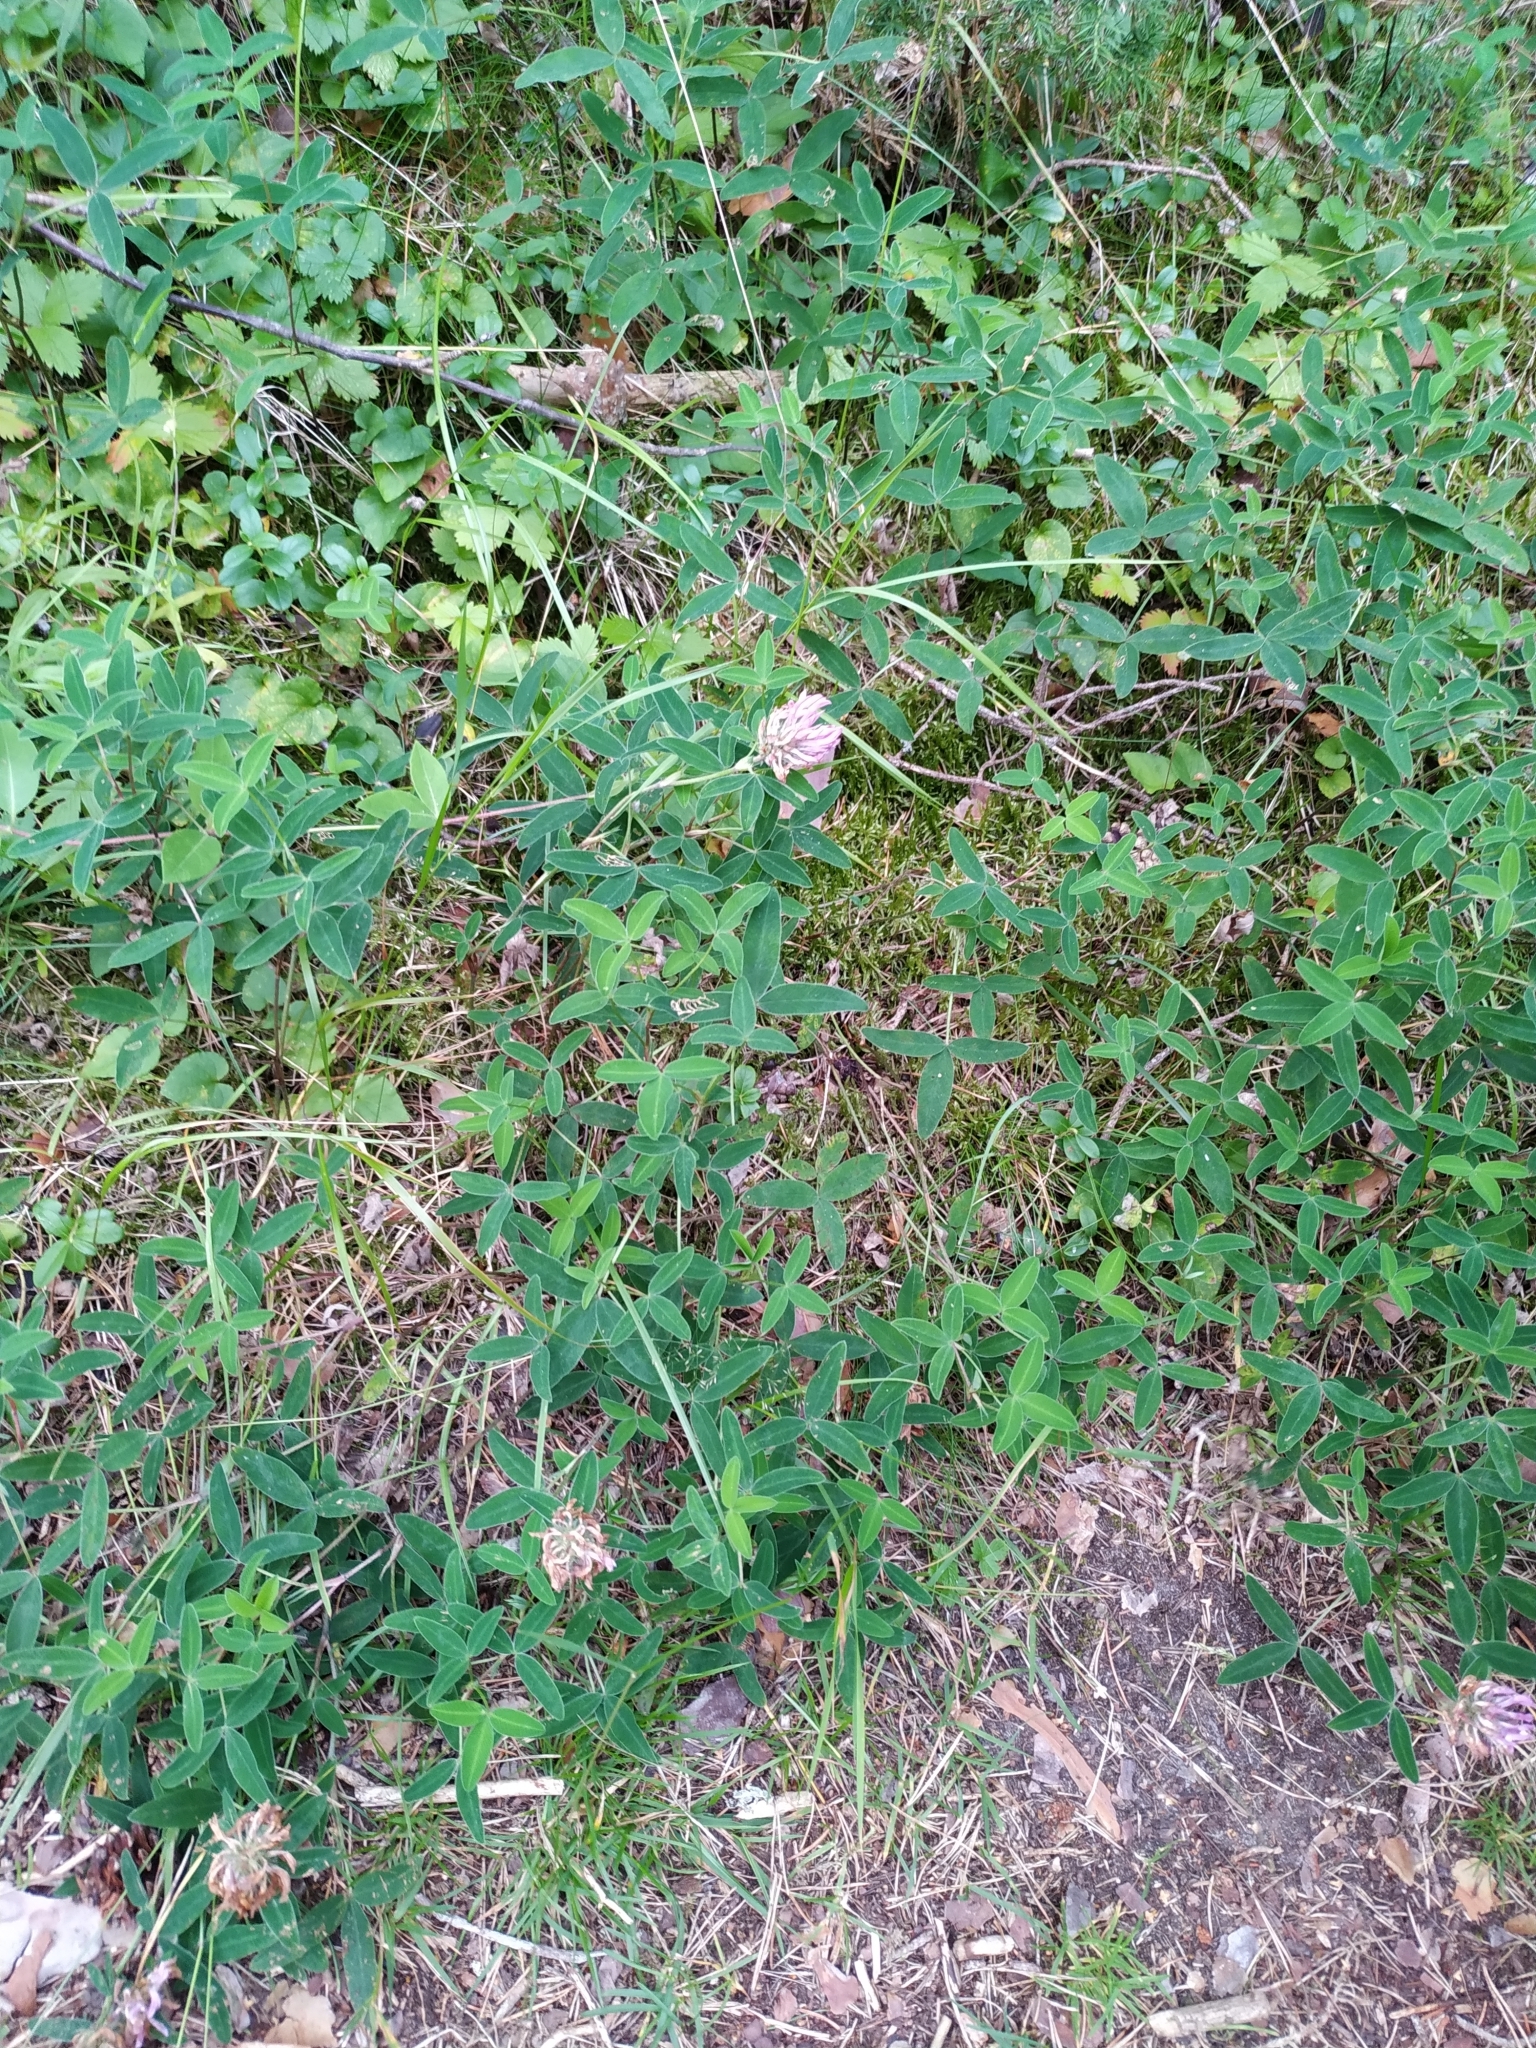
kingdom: Plantae
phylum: Tracheophyta
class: Magnoliopsida
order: Fabales
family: Fabaceae
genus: Trifolium
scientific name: Trifolium medium
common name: Zigzag clover
